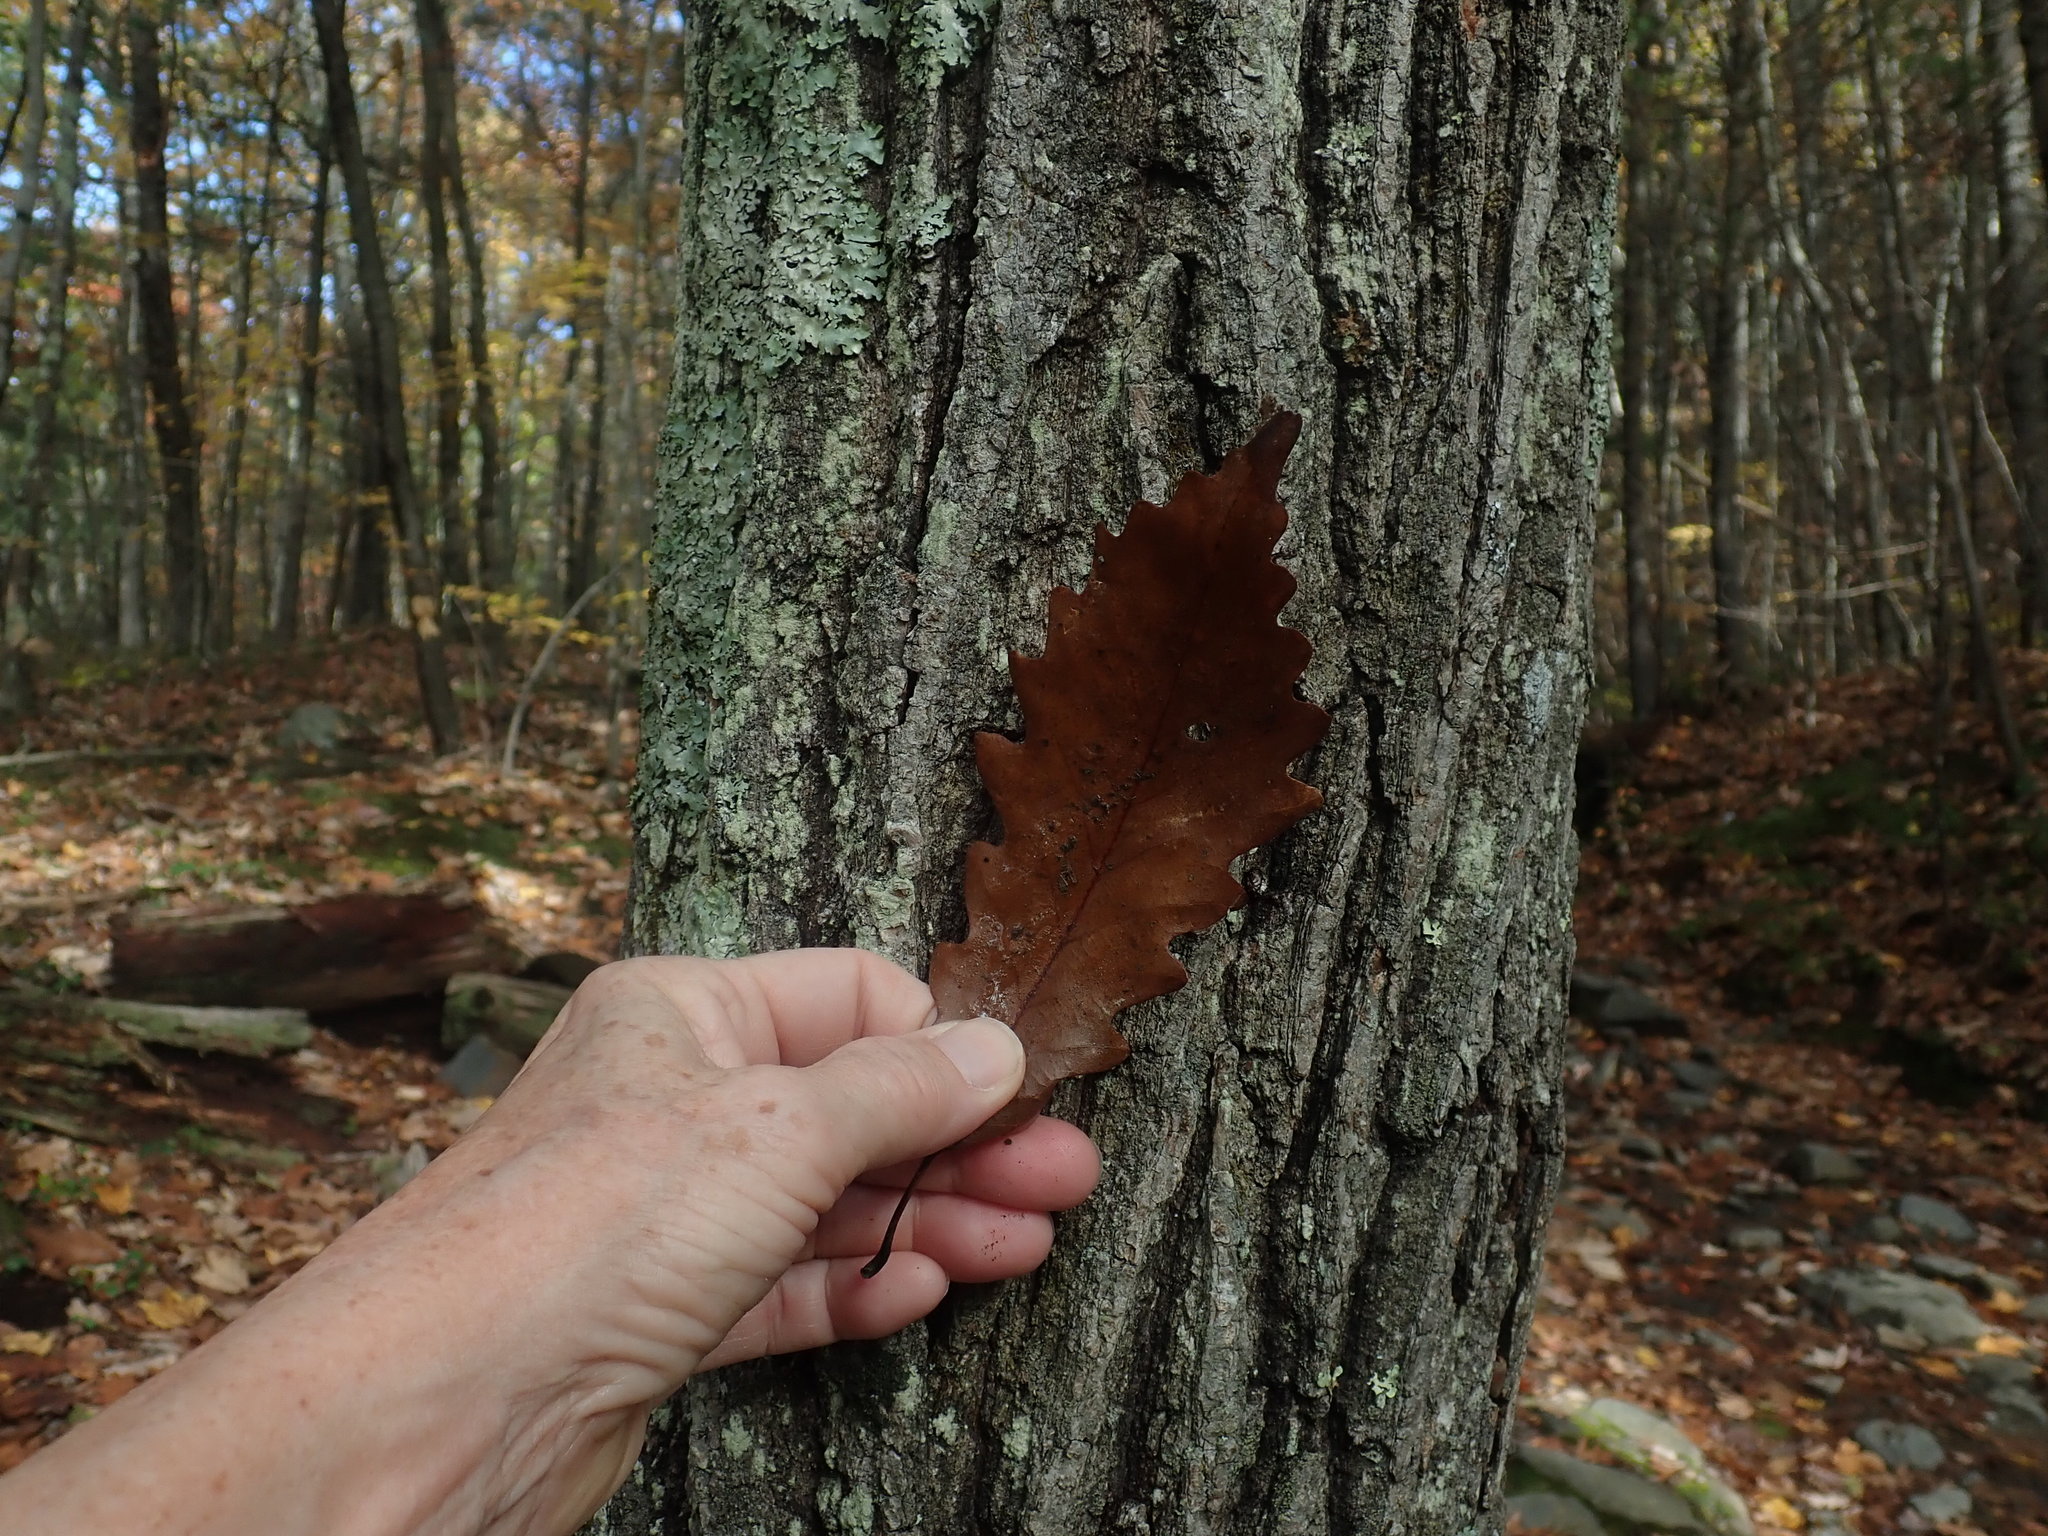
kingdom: Plantae
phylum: Tracheophyta
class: Magnoliopsida
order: Fagales
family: Fagaceae
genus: Quercus
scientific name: Quercus montana
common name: Chestnut oak
